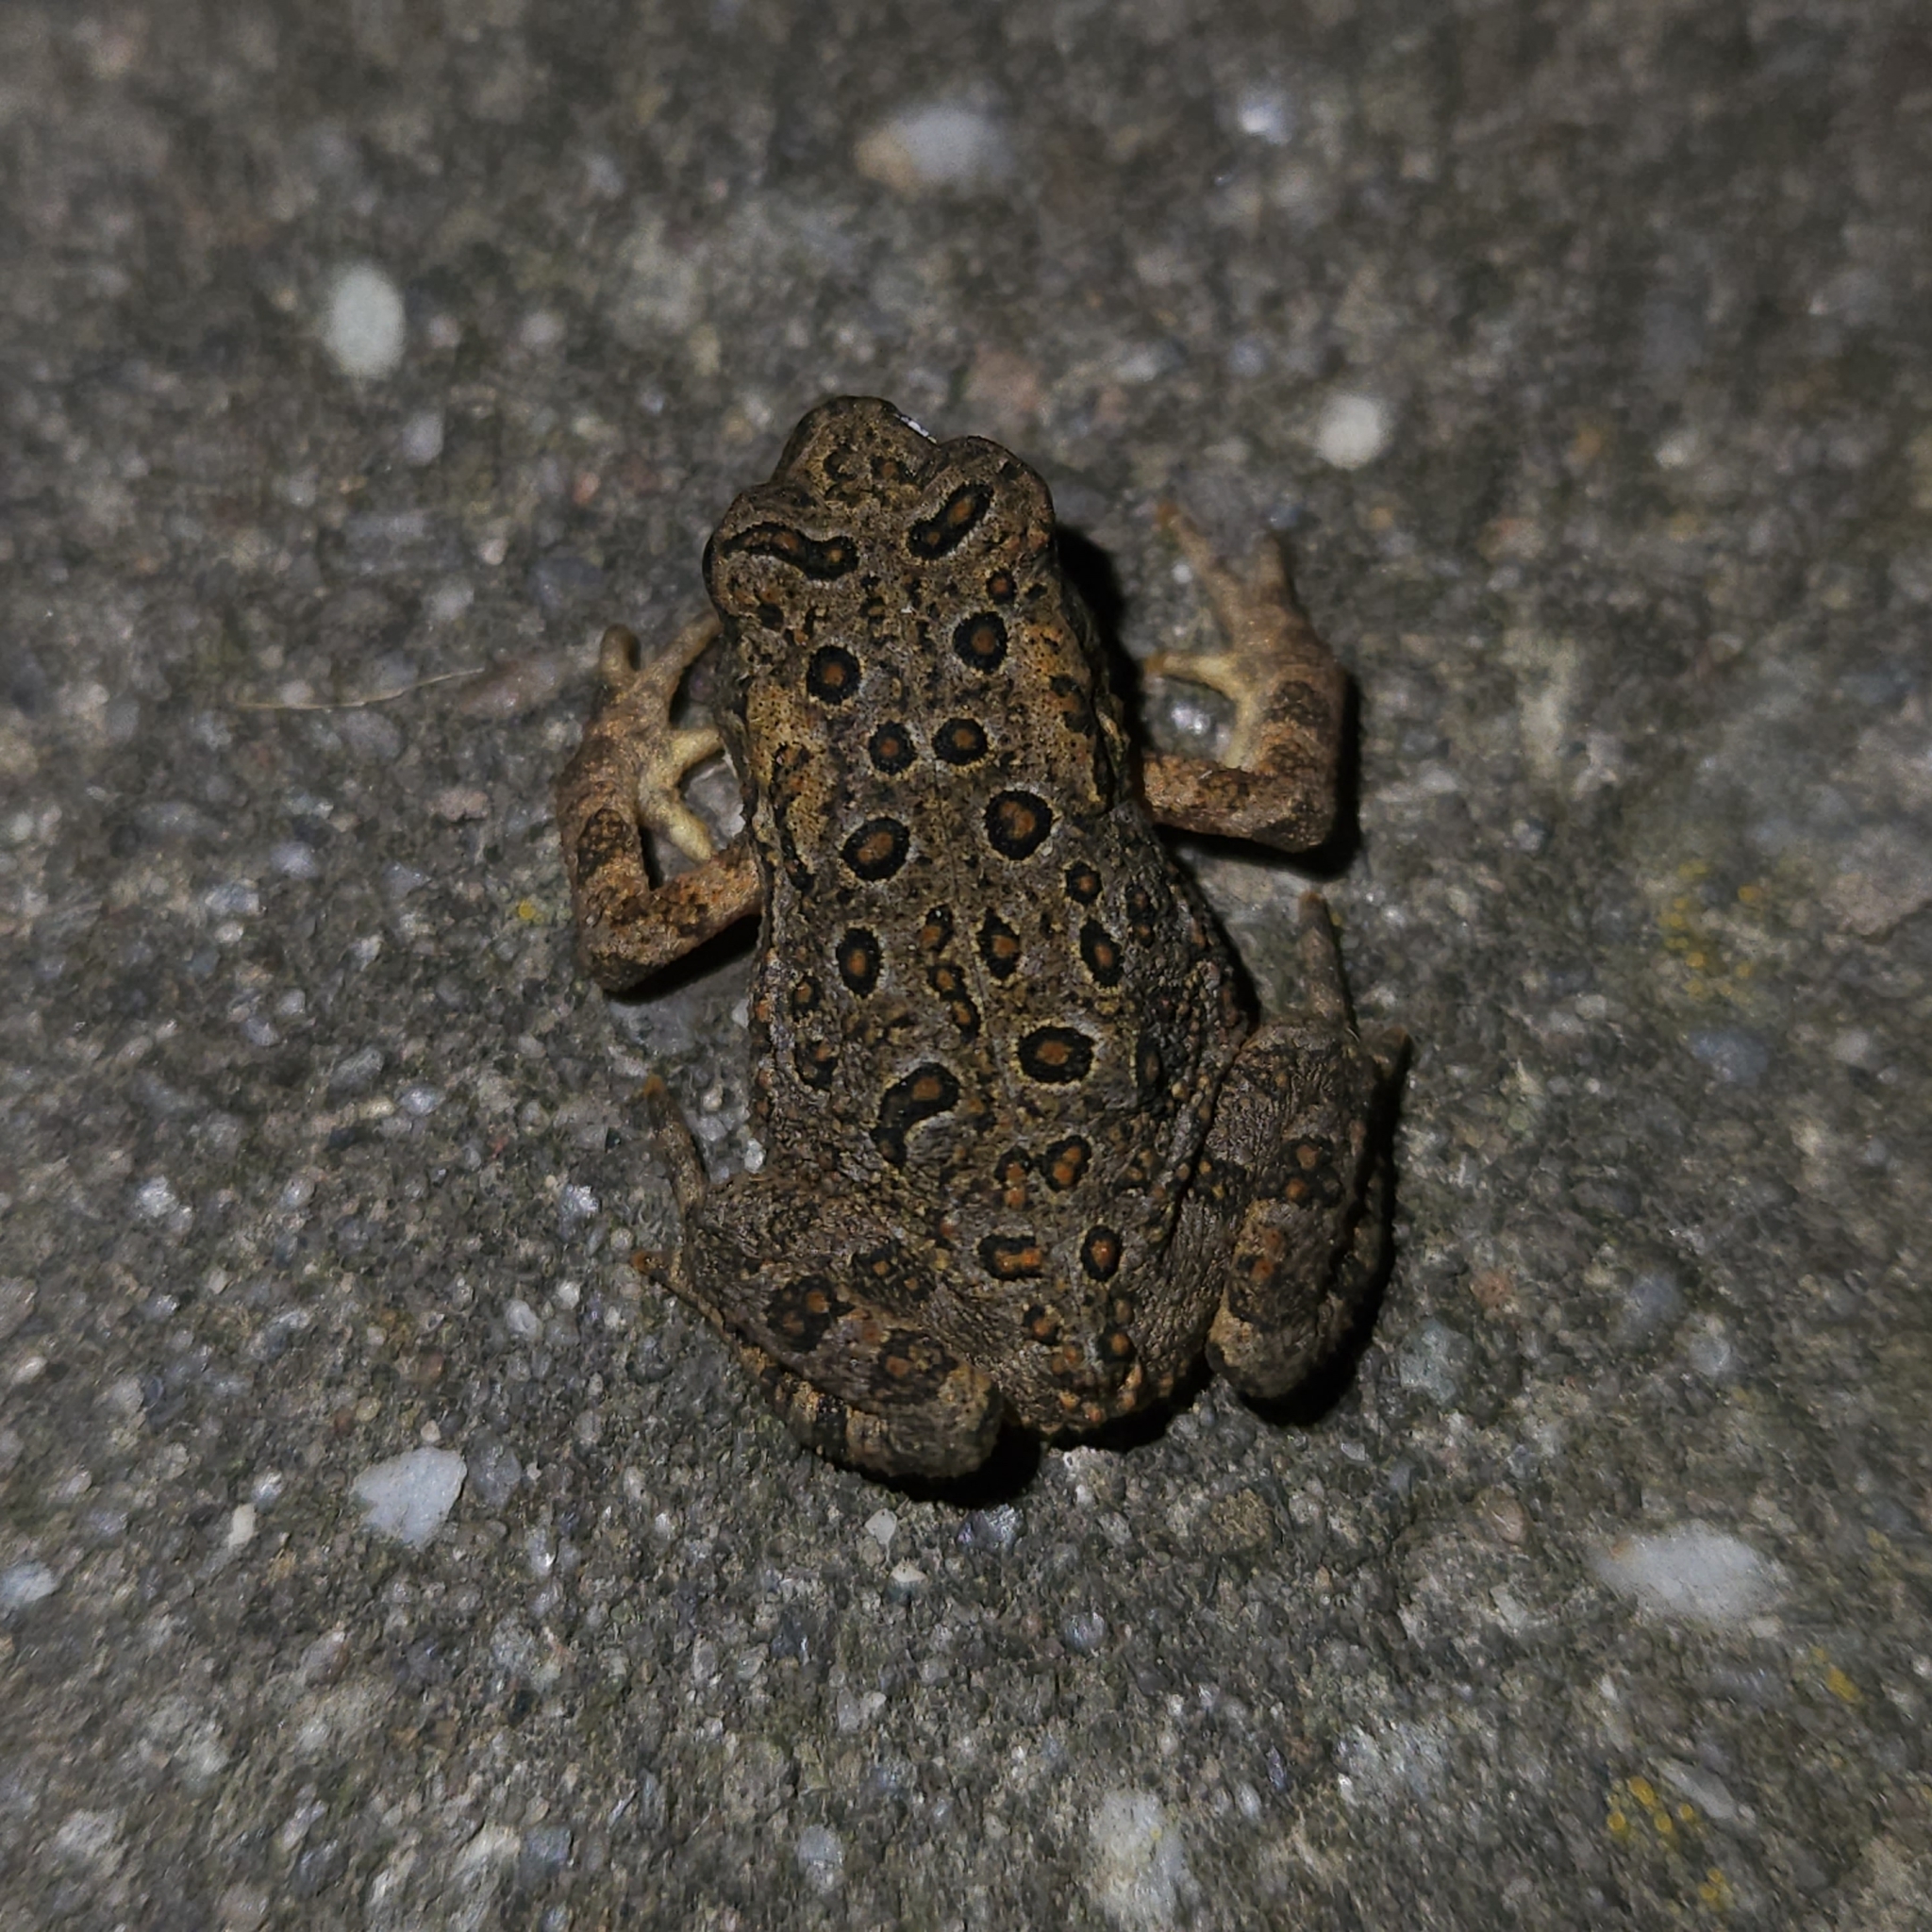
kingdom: Animalia
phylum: Chordata
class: Amphibia
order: Anura
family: Bufonidae
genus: Anaxyrus
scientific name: Anaxyrus americanus
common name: American toad
